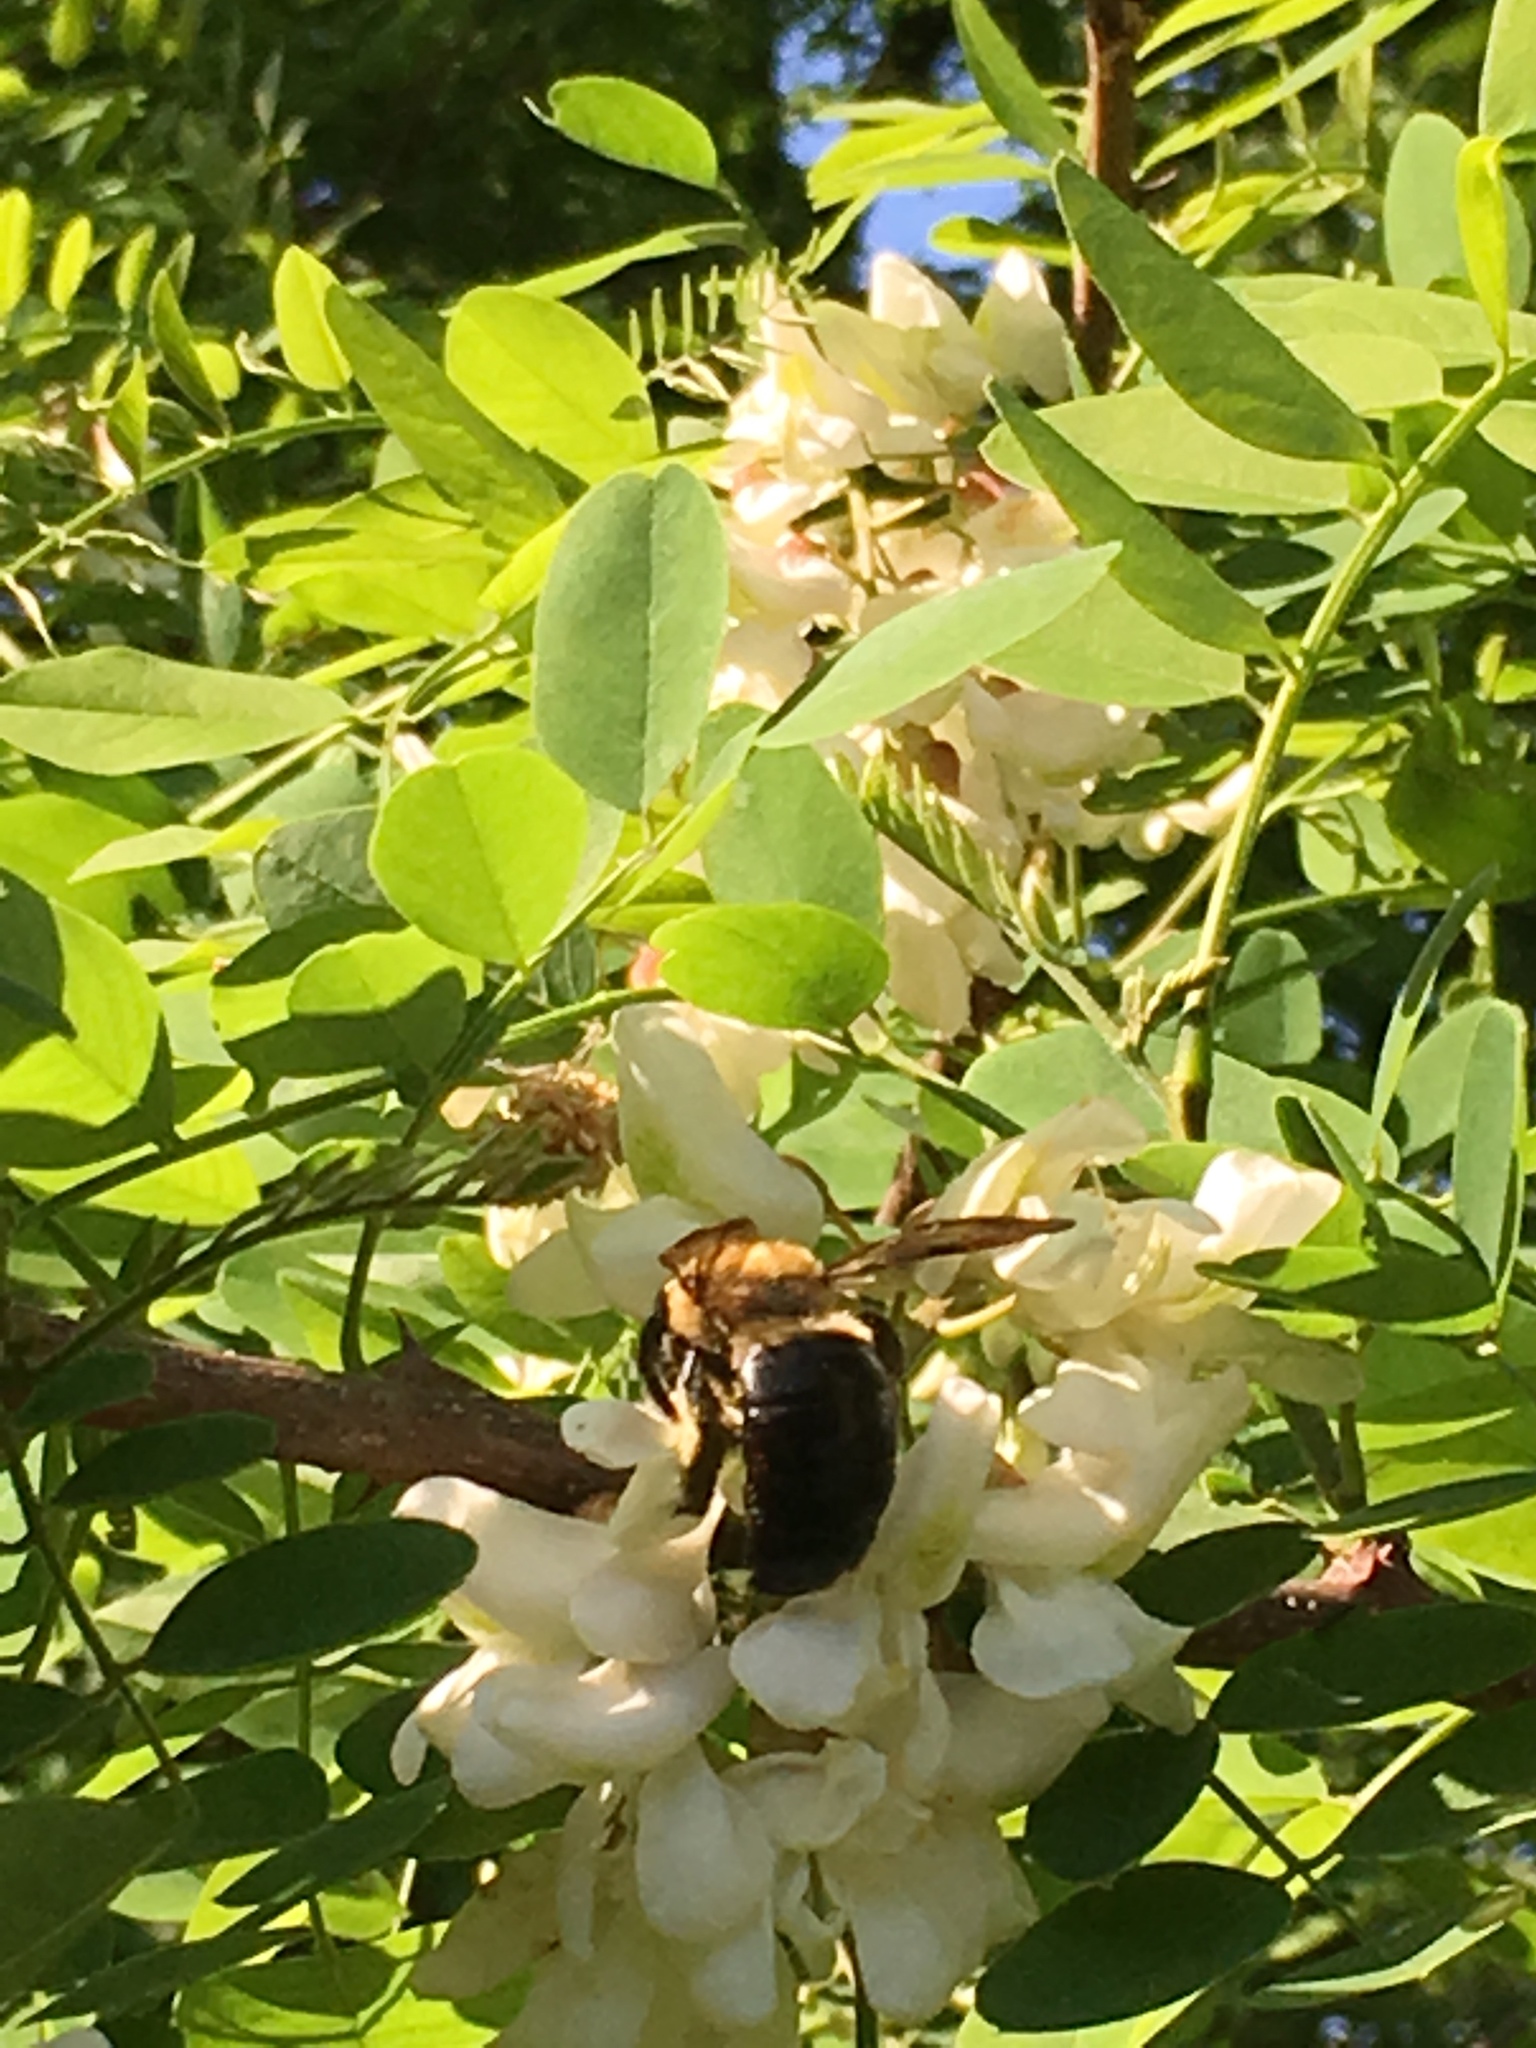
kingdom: Animalia
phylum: Arthropoda
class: Insecta
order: Hymenoptera
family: Apidae
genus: Xylocopa
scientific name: Xylocopa virginica
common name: Carpenter bee
